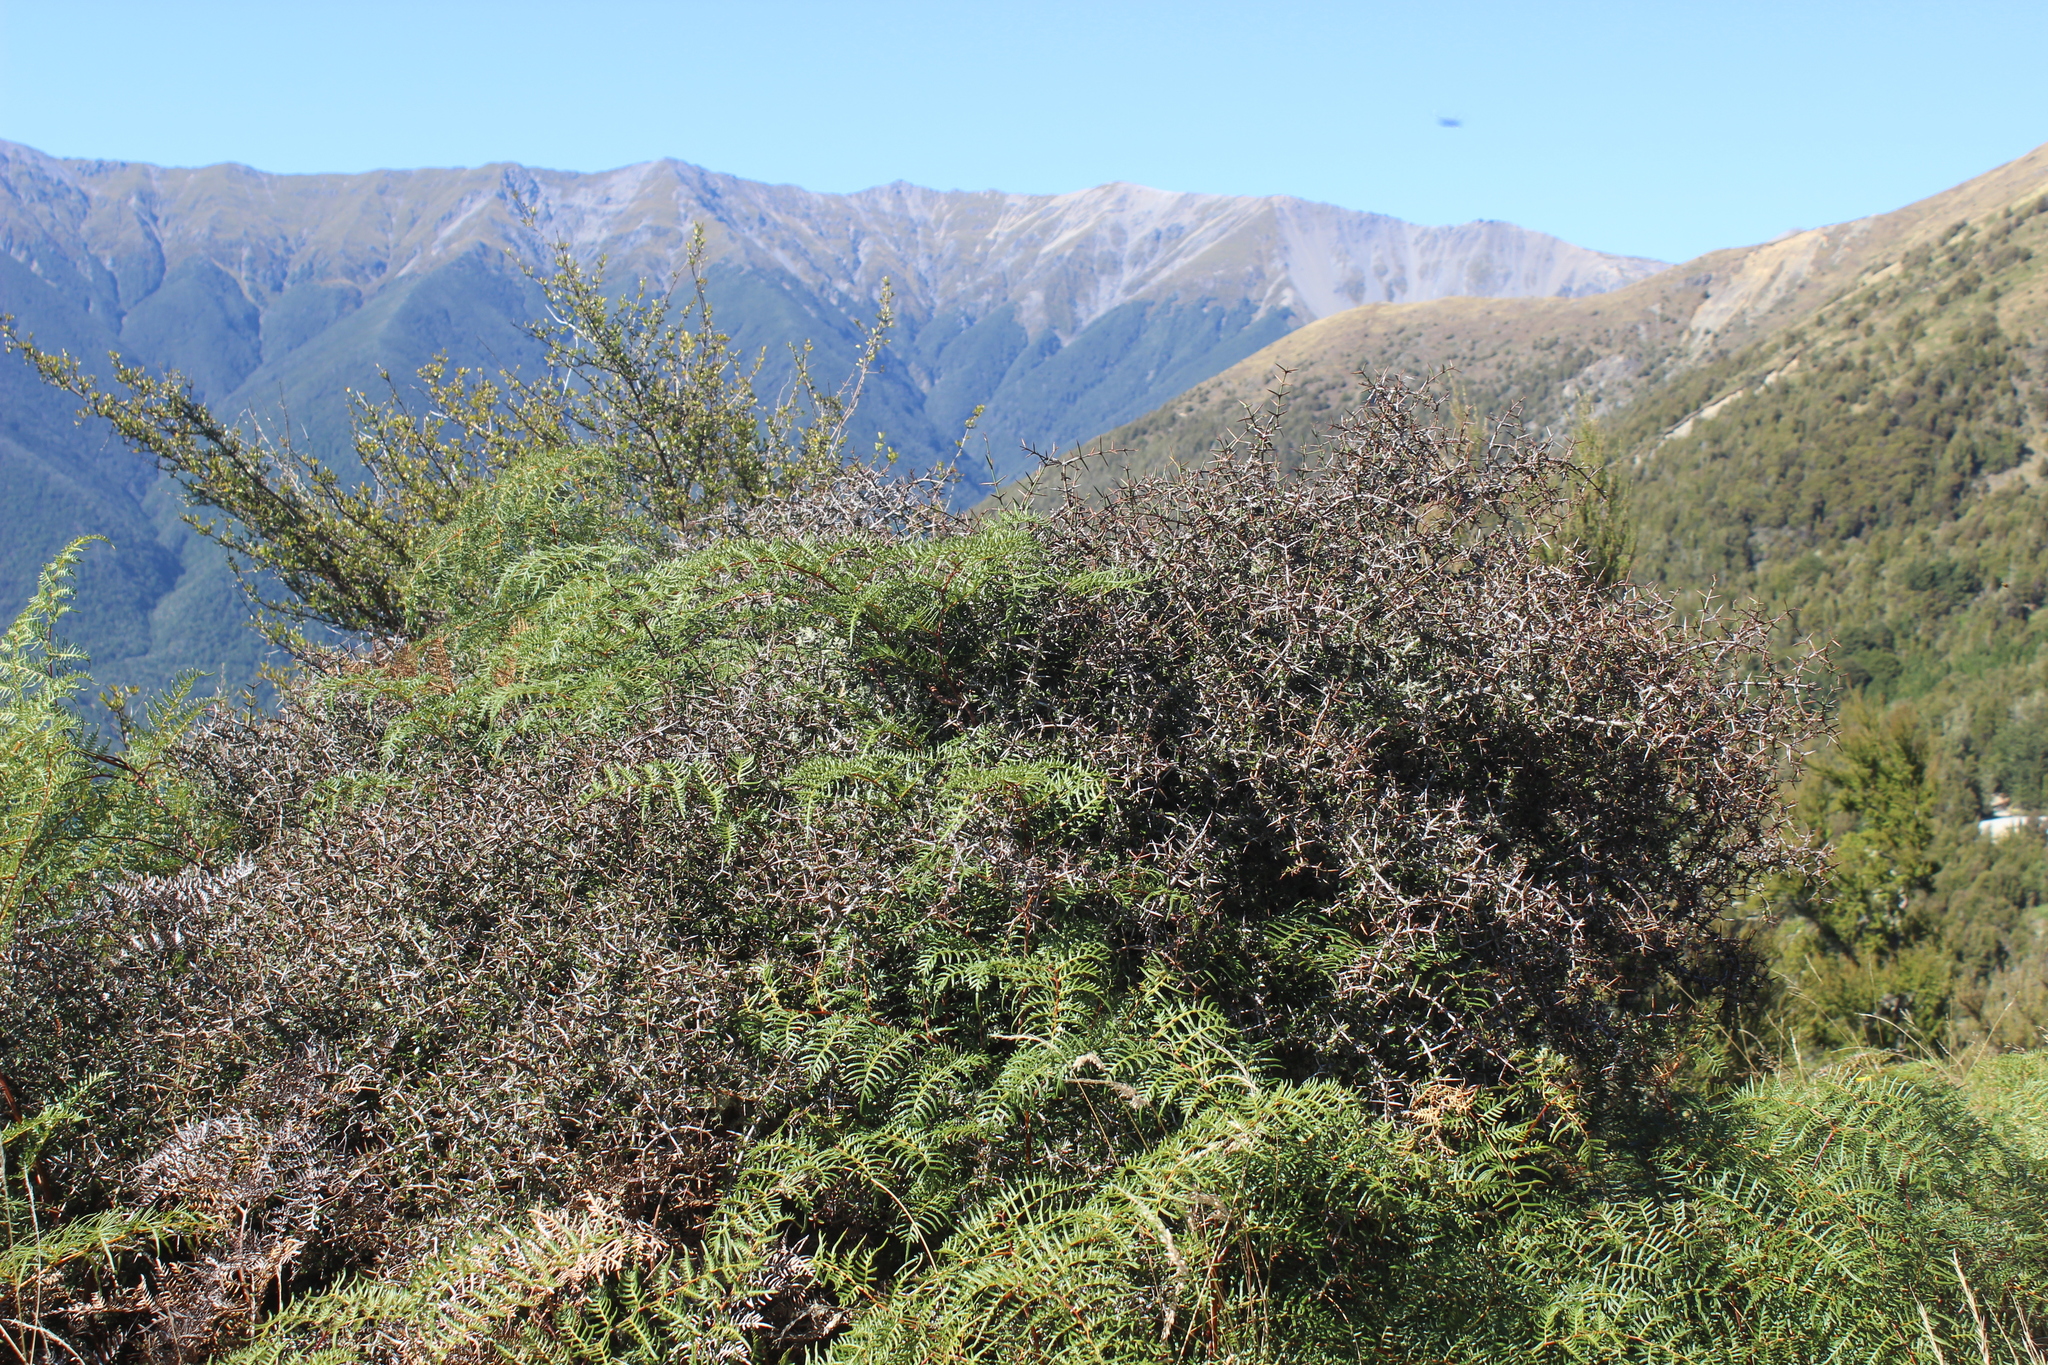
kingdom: Plantae
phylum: Tracheophyta
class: Magnoliopsida
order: Rosales
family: Rhamnaceae
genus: Discaria
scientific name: Discaria toumatou
